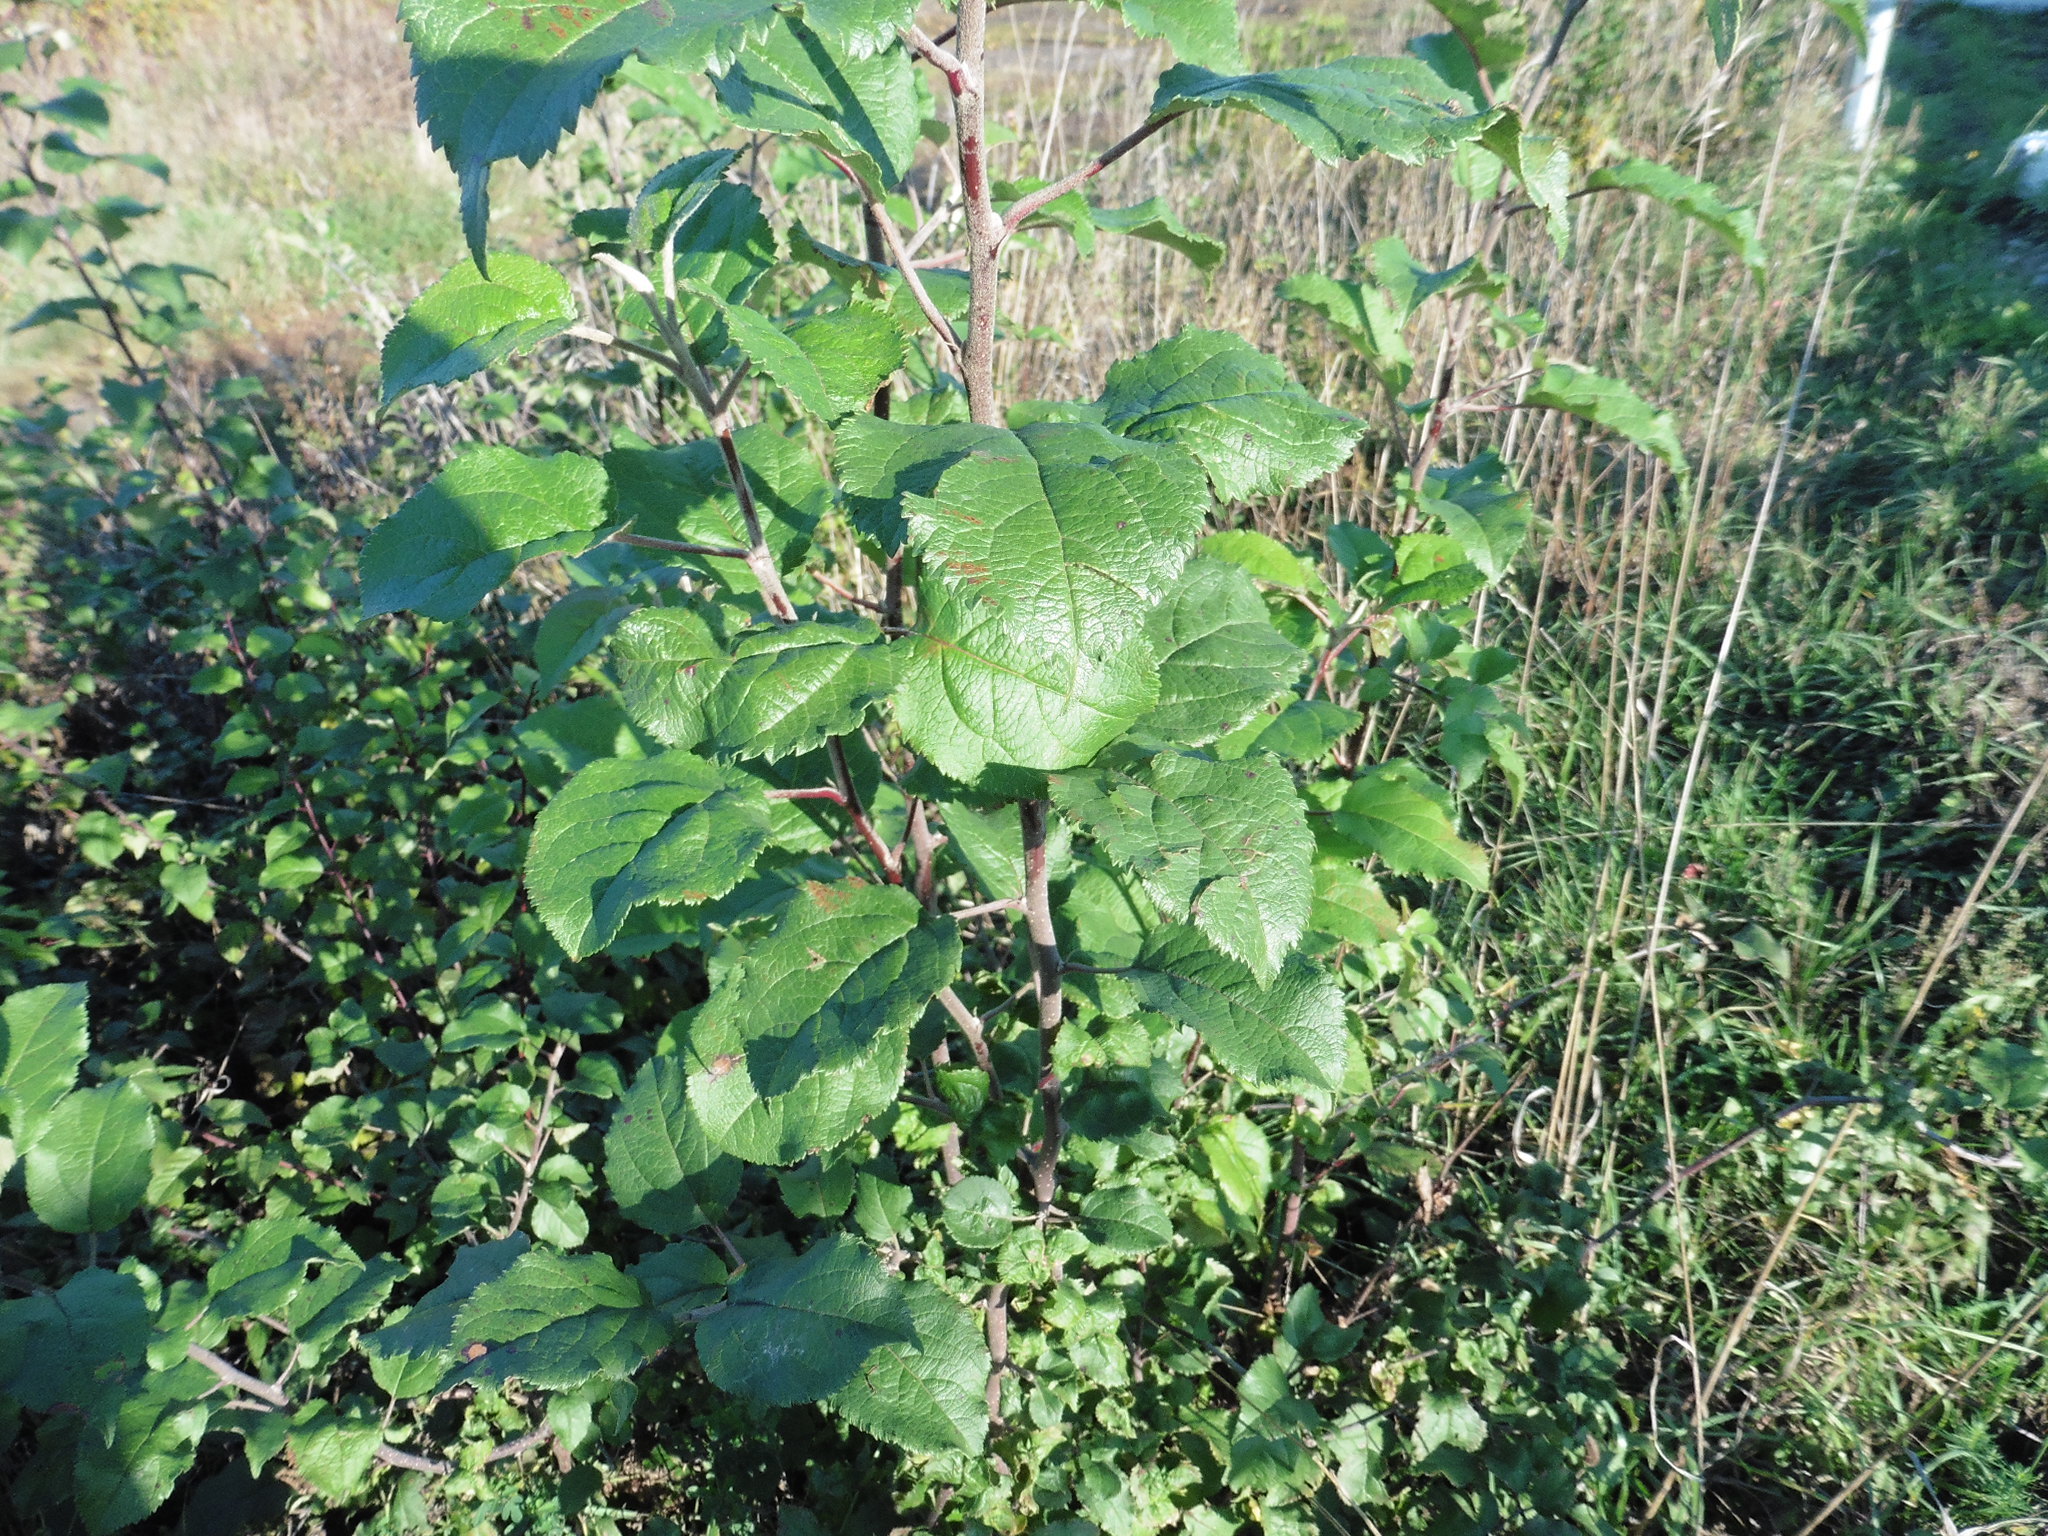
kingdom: Plantae
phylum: Tracheophyta
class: Magnoliopsida
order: Rosales
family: Rosaceae
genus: Malus
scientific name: Malus domestica
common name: Apple
